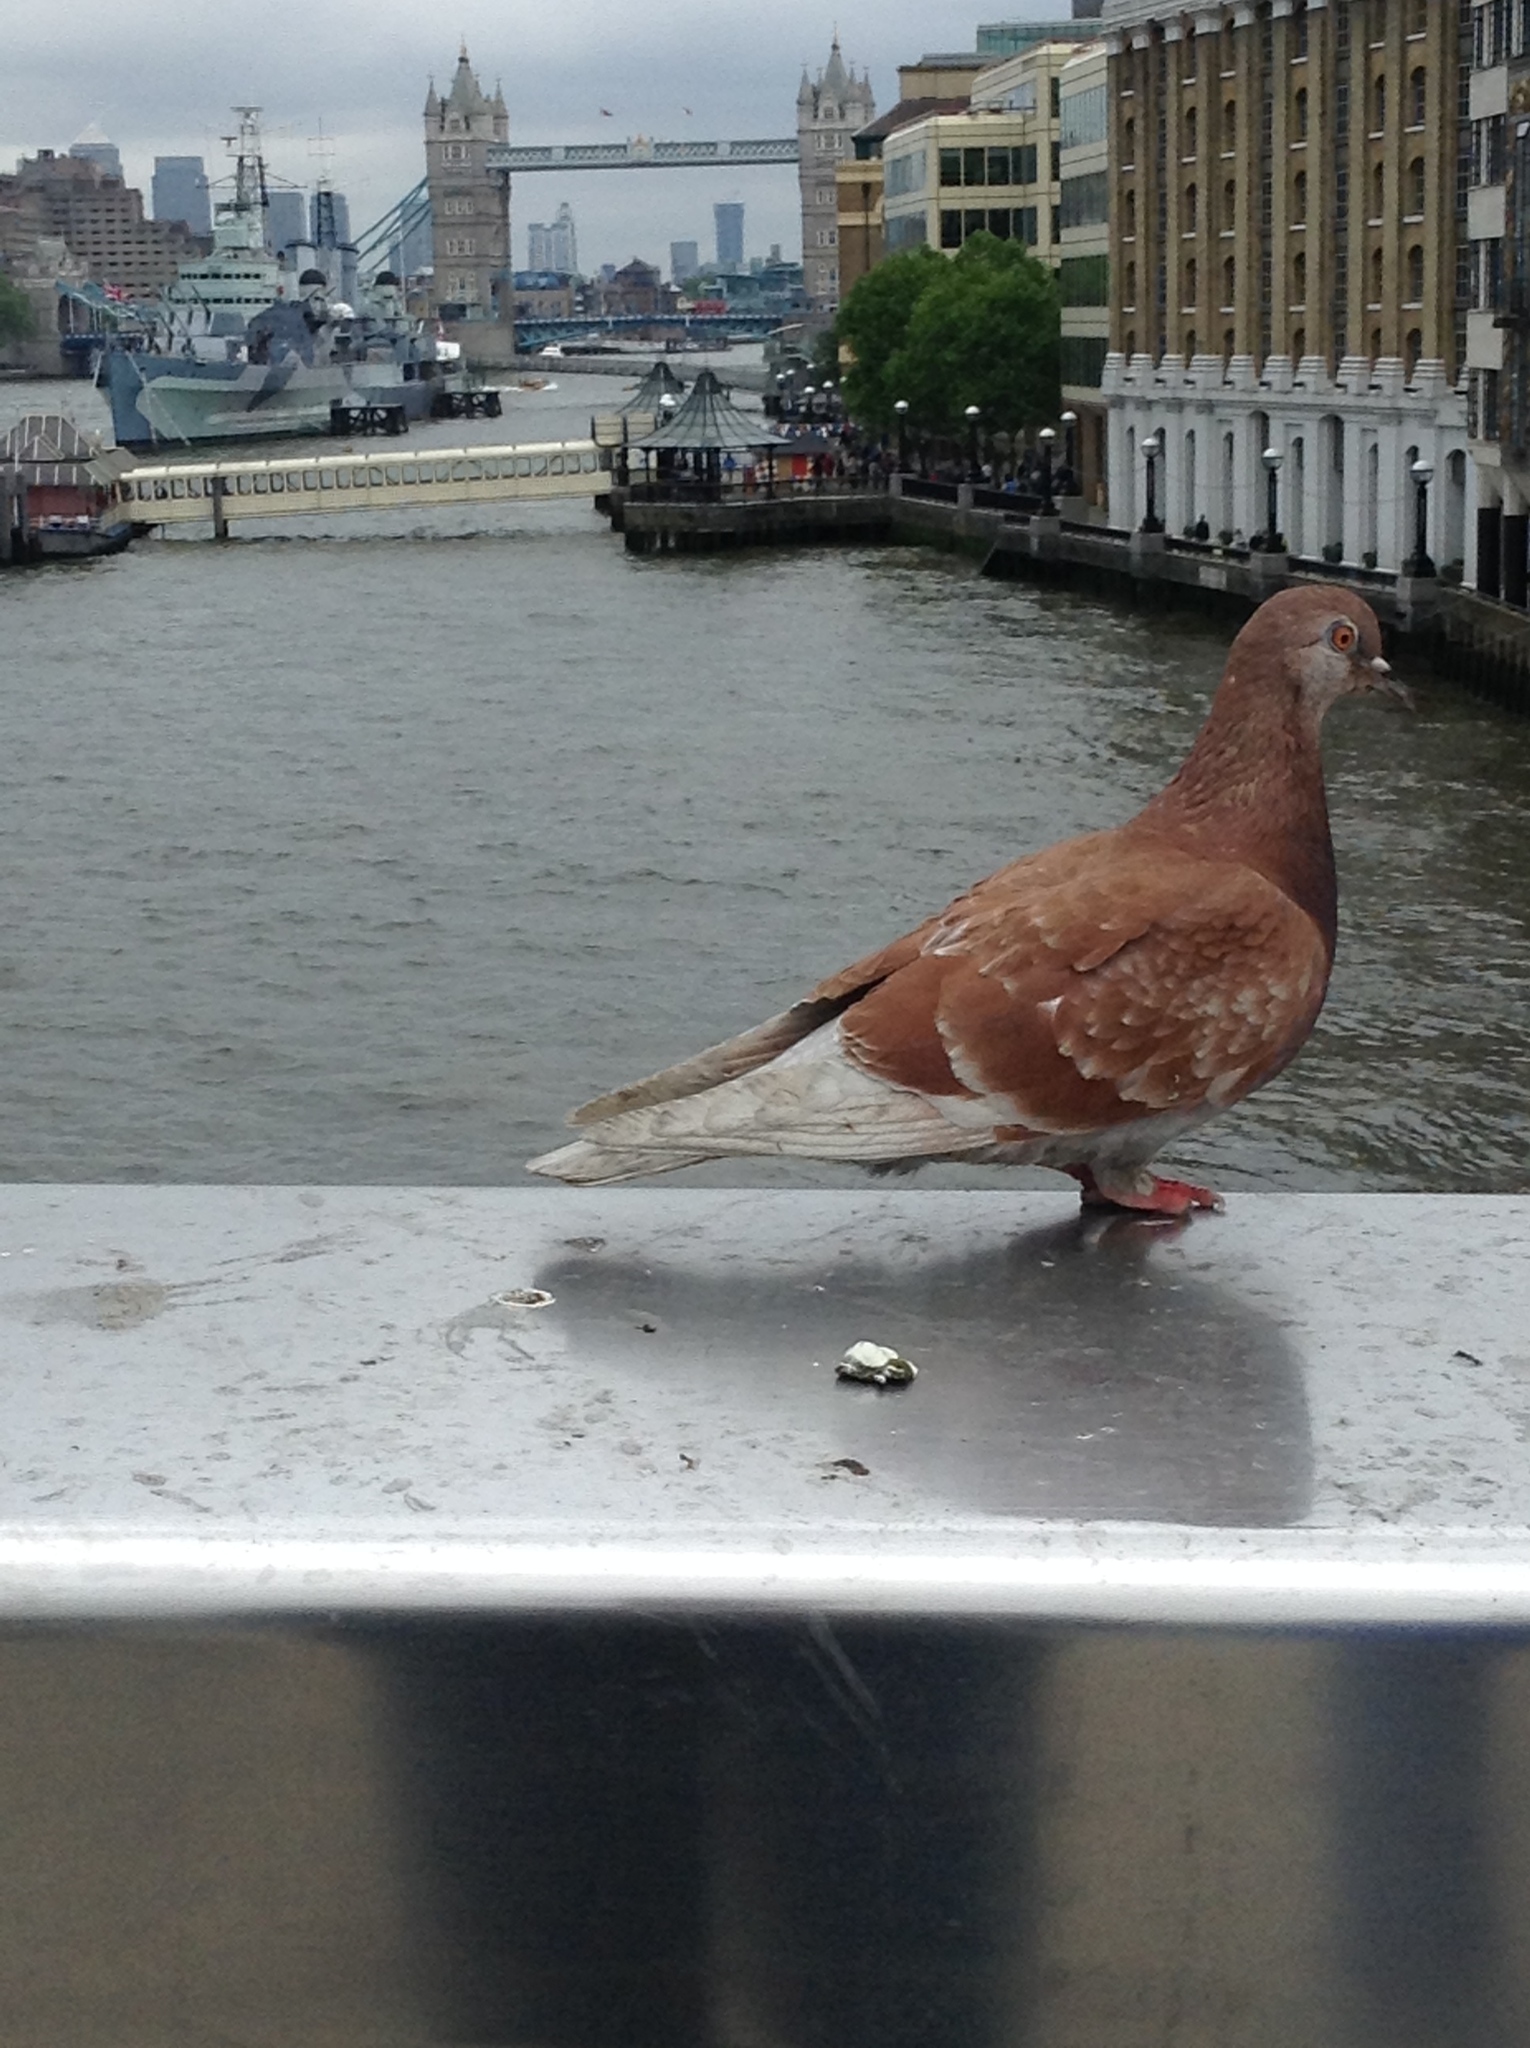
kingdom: Animalia
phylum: Chordata
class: Aves
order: Columbiformes
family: Columbidae
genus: Columba
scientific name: Columba livia
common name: Rock pigeon
